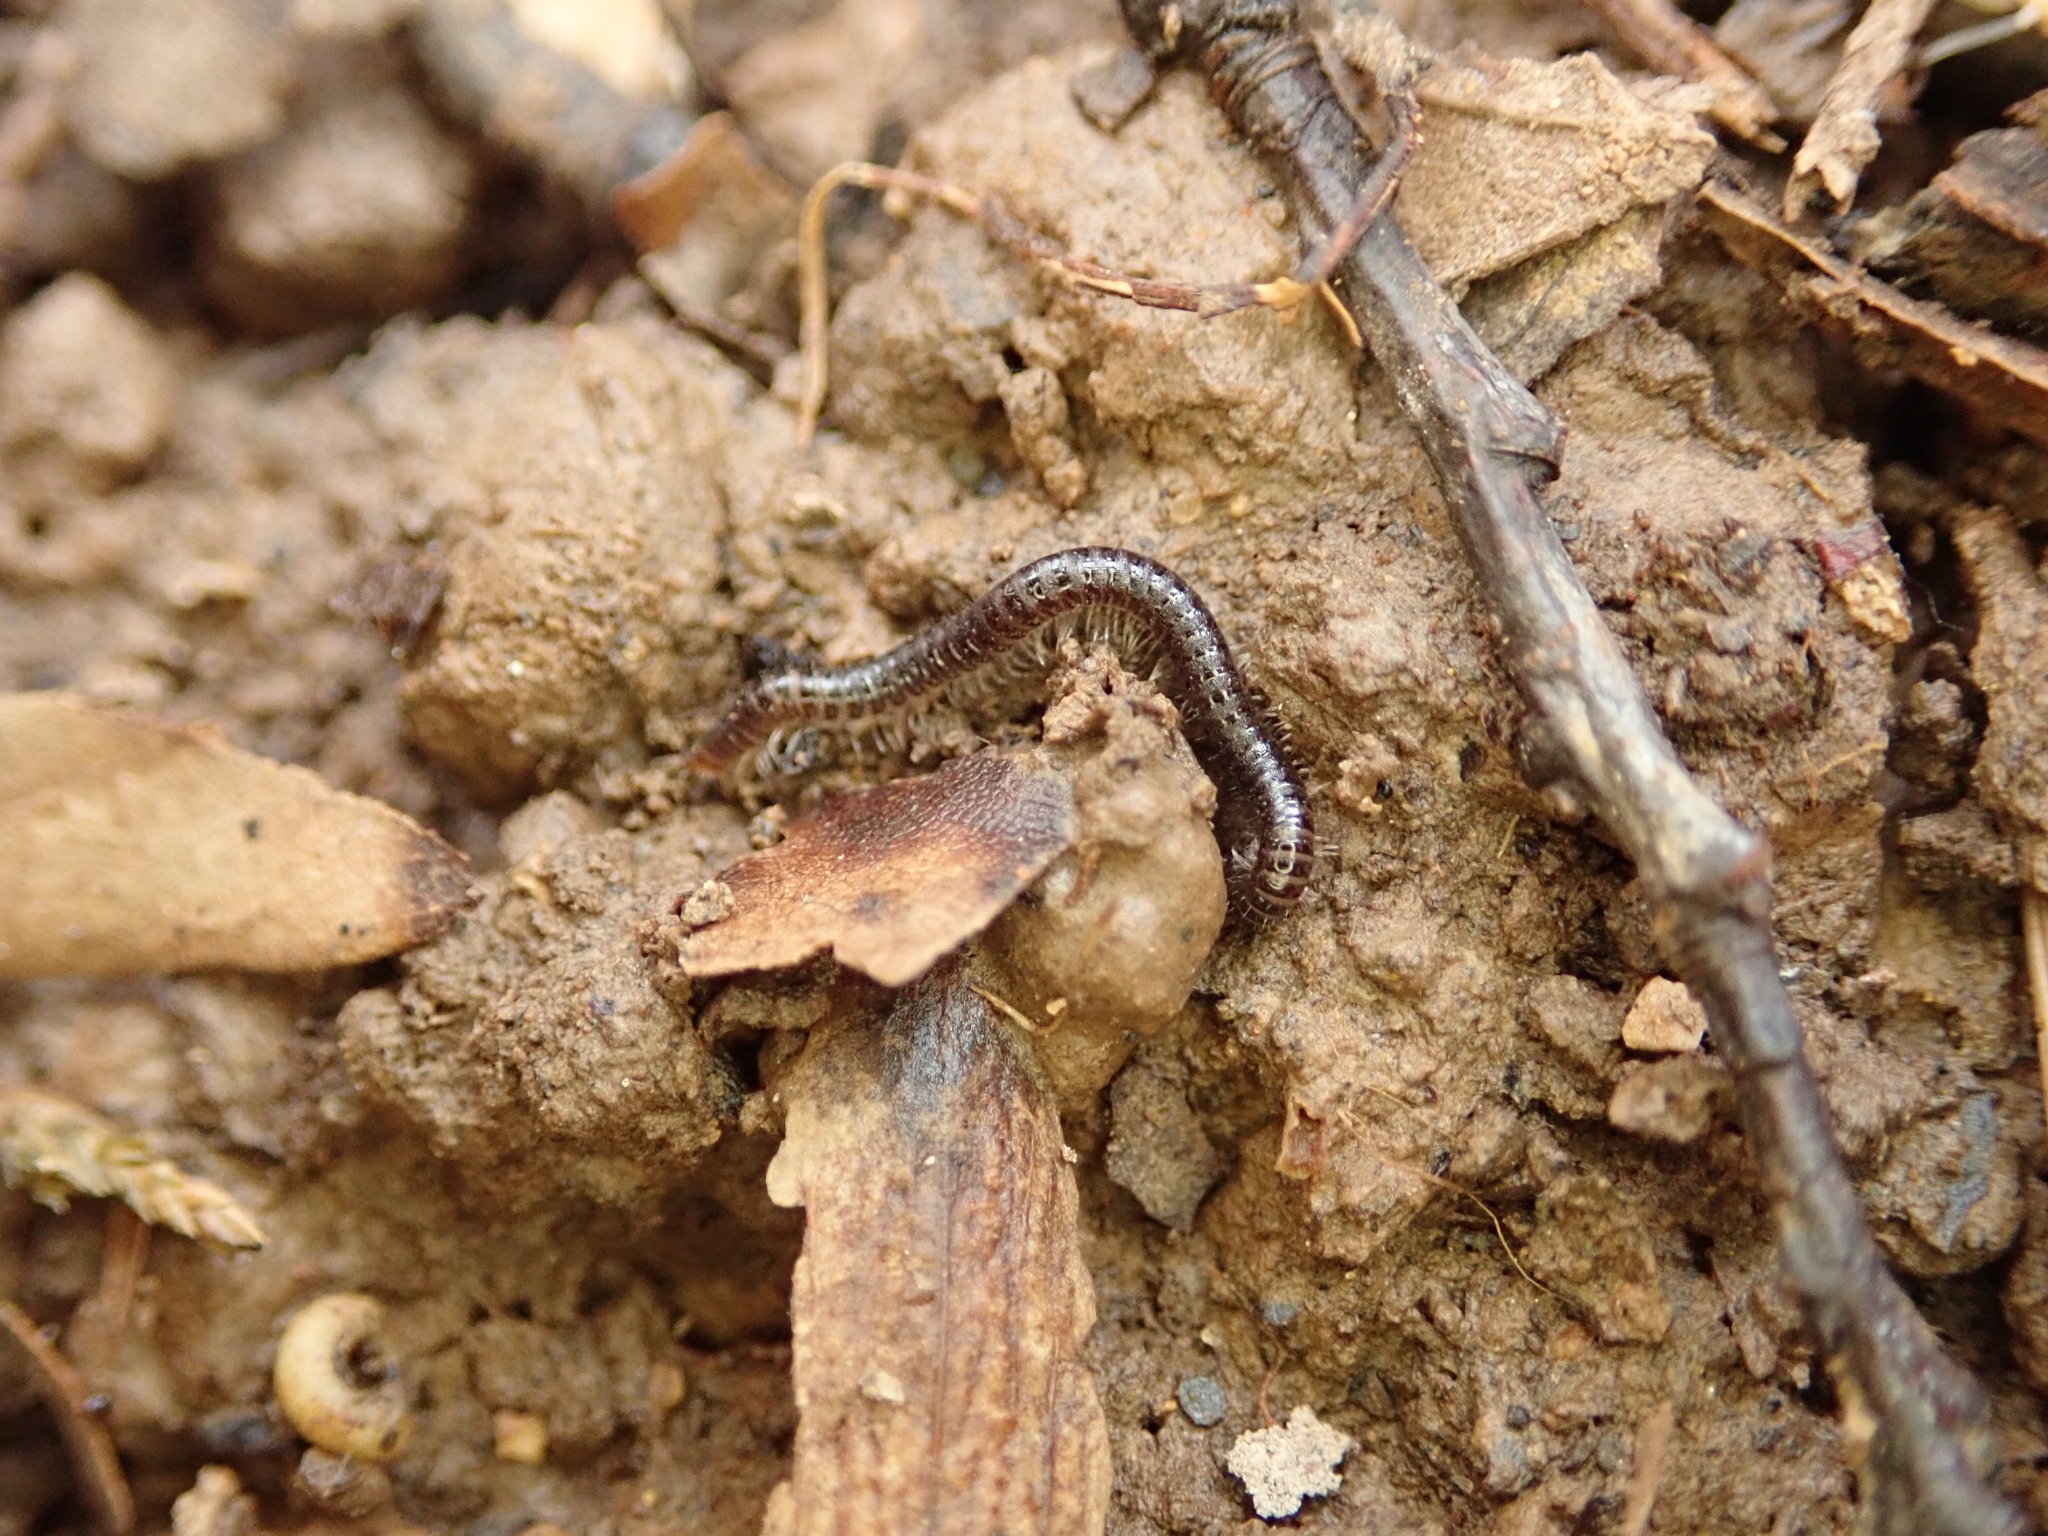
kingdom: Animalia
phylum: Arthropoda
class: Diplopoda
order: Julida
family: Julidae
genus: Ophyiulus
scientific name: Ophyiulus pilosus
